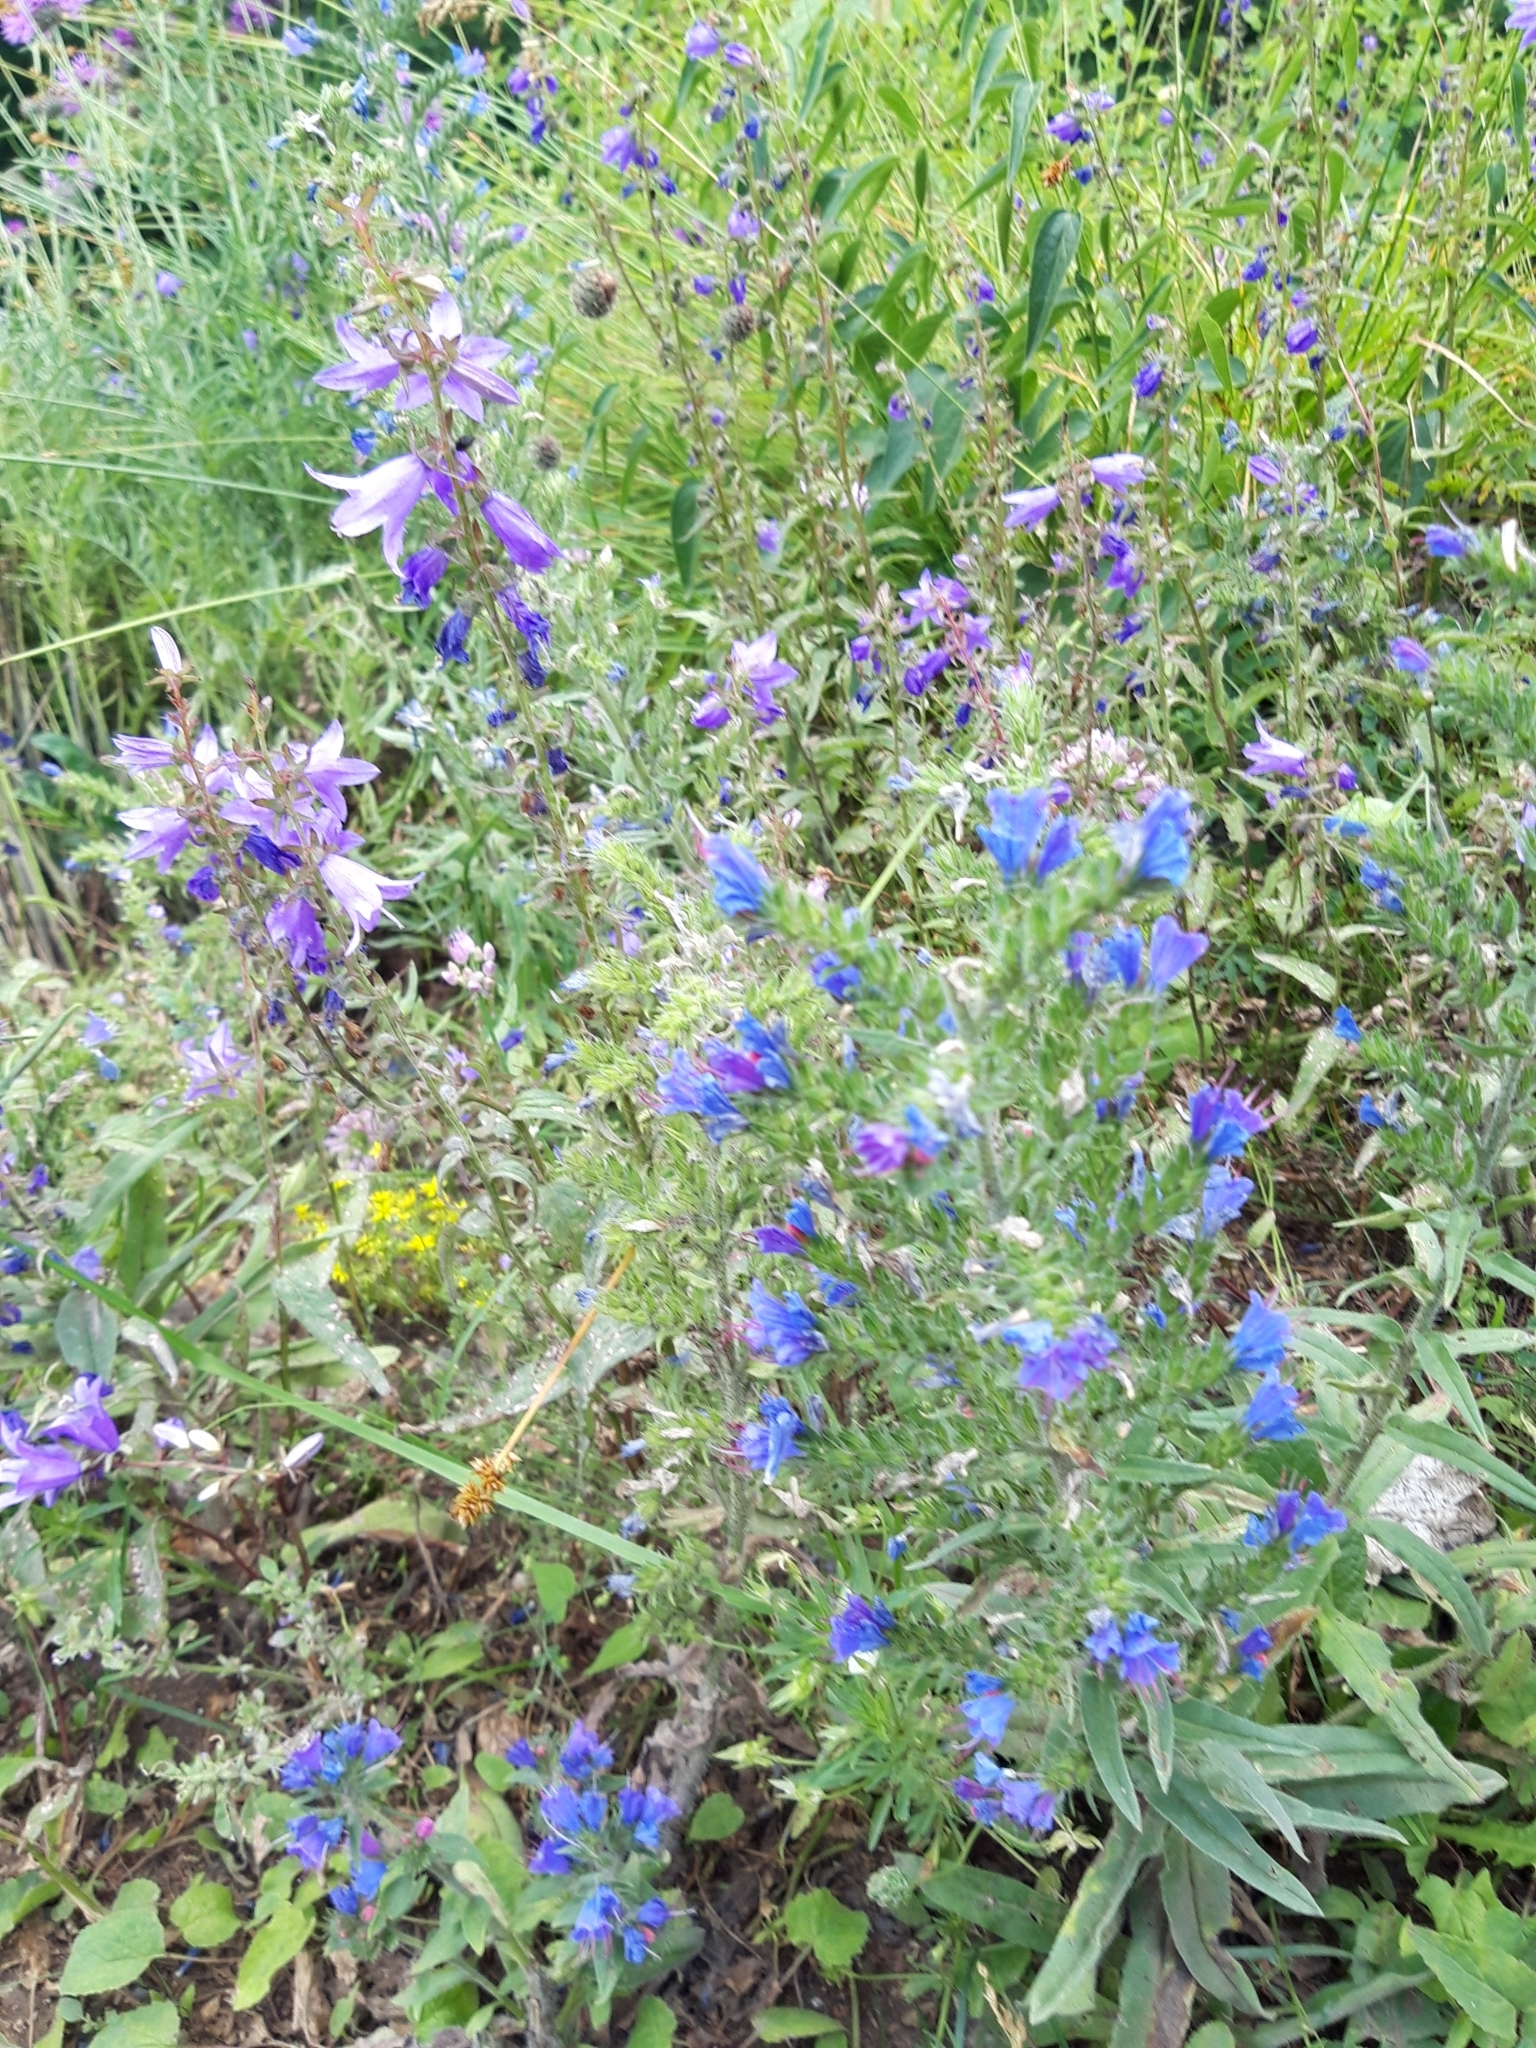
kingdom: Plantae
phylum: Tracheophyta
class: Magnoliopsida
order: Boraginales
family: Boraginaceae
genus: Echium
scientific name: Echium vulgare
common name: Common viper's bugloss
